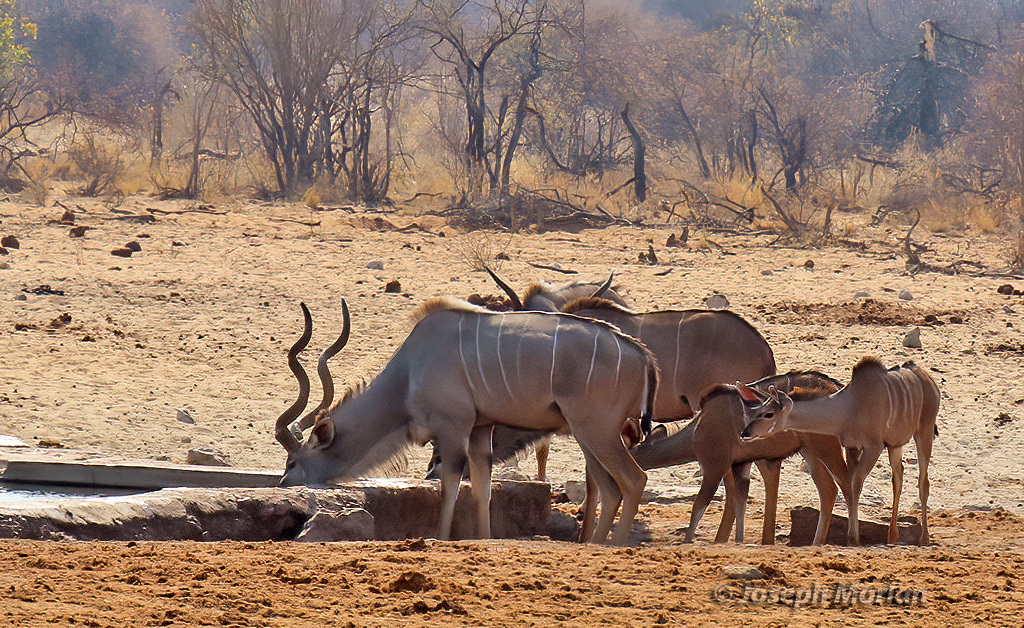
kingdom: Animalia
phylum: Chordata
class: Mammalia
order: Artiodactyla
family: Bovidae
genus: Tragelaphus
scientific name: Tragelaphus strepsiceros
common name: Greater kudu
